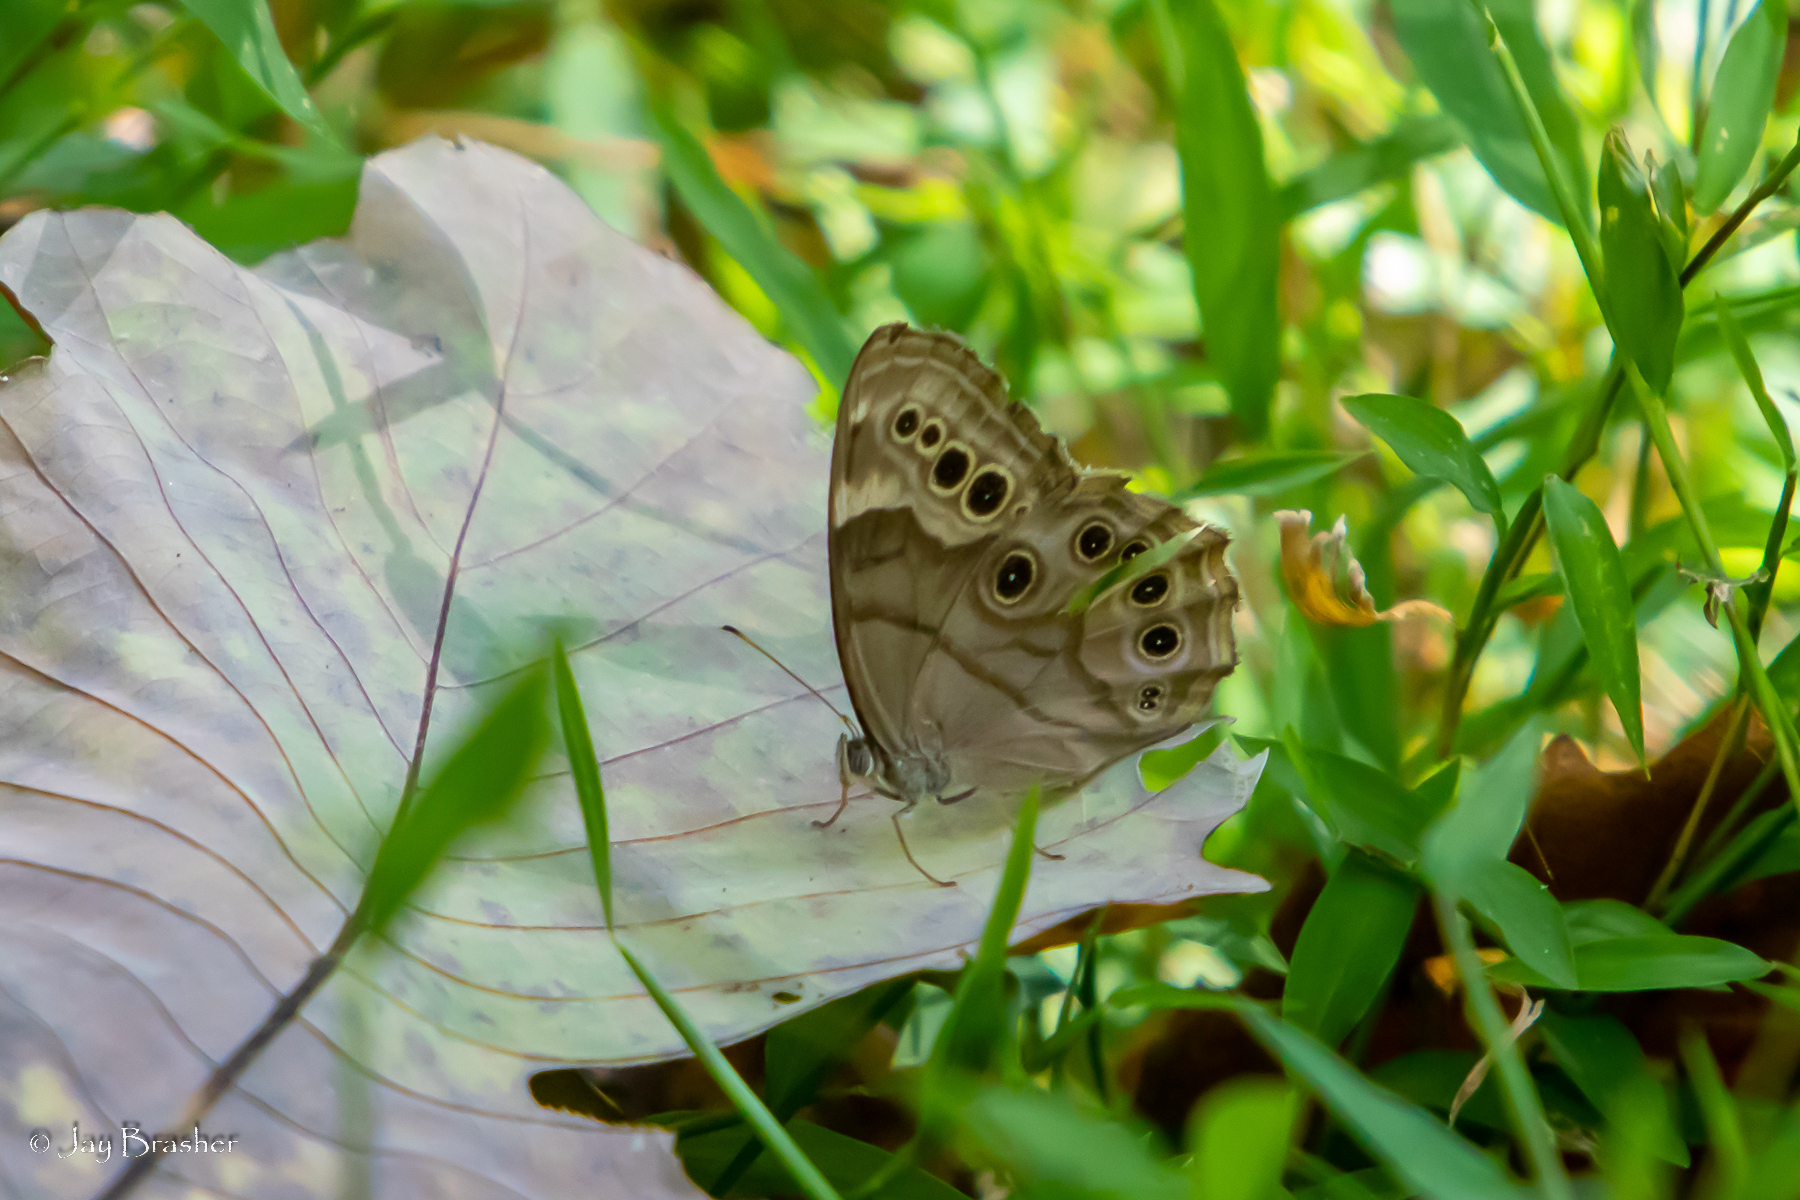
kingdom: Animalia
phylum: Arthropoda
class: Insecta
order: Lepidoptera
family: Nymphalidae
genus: Lethe
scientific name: Lethe anthedon
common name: Northern pearly-eye
